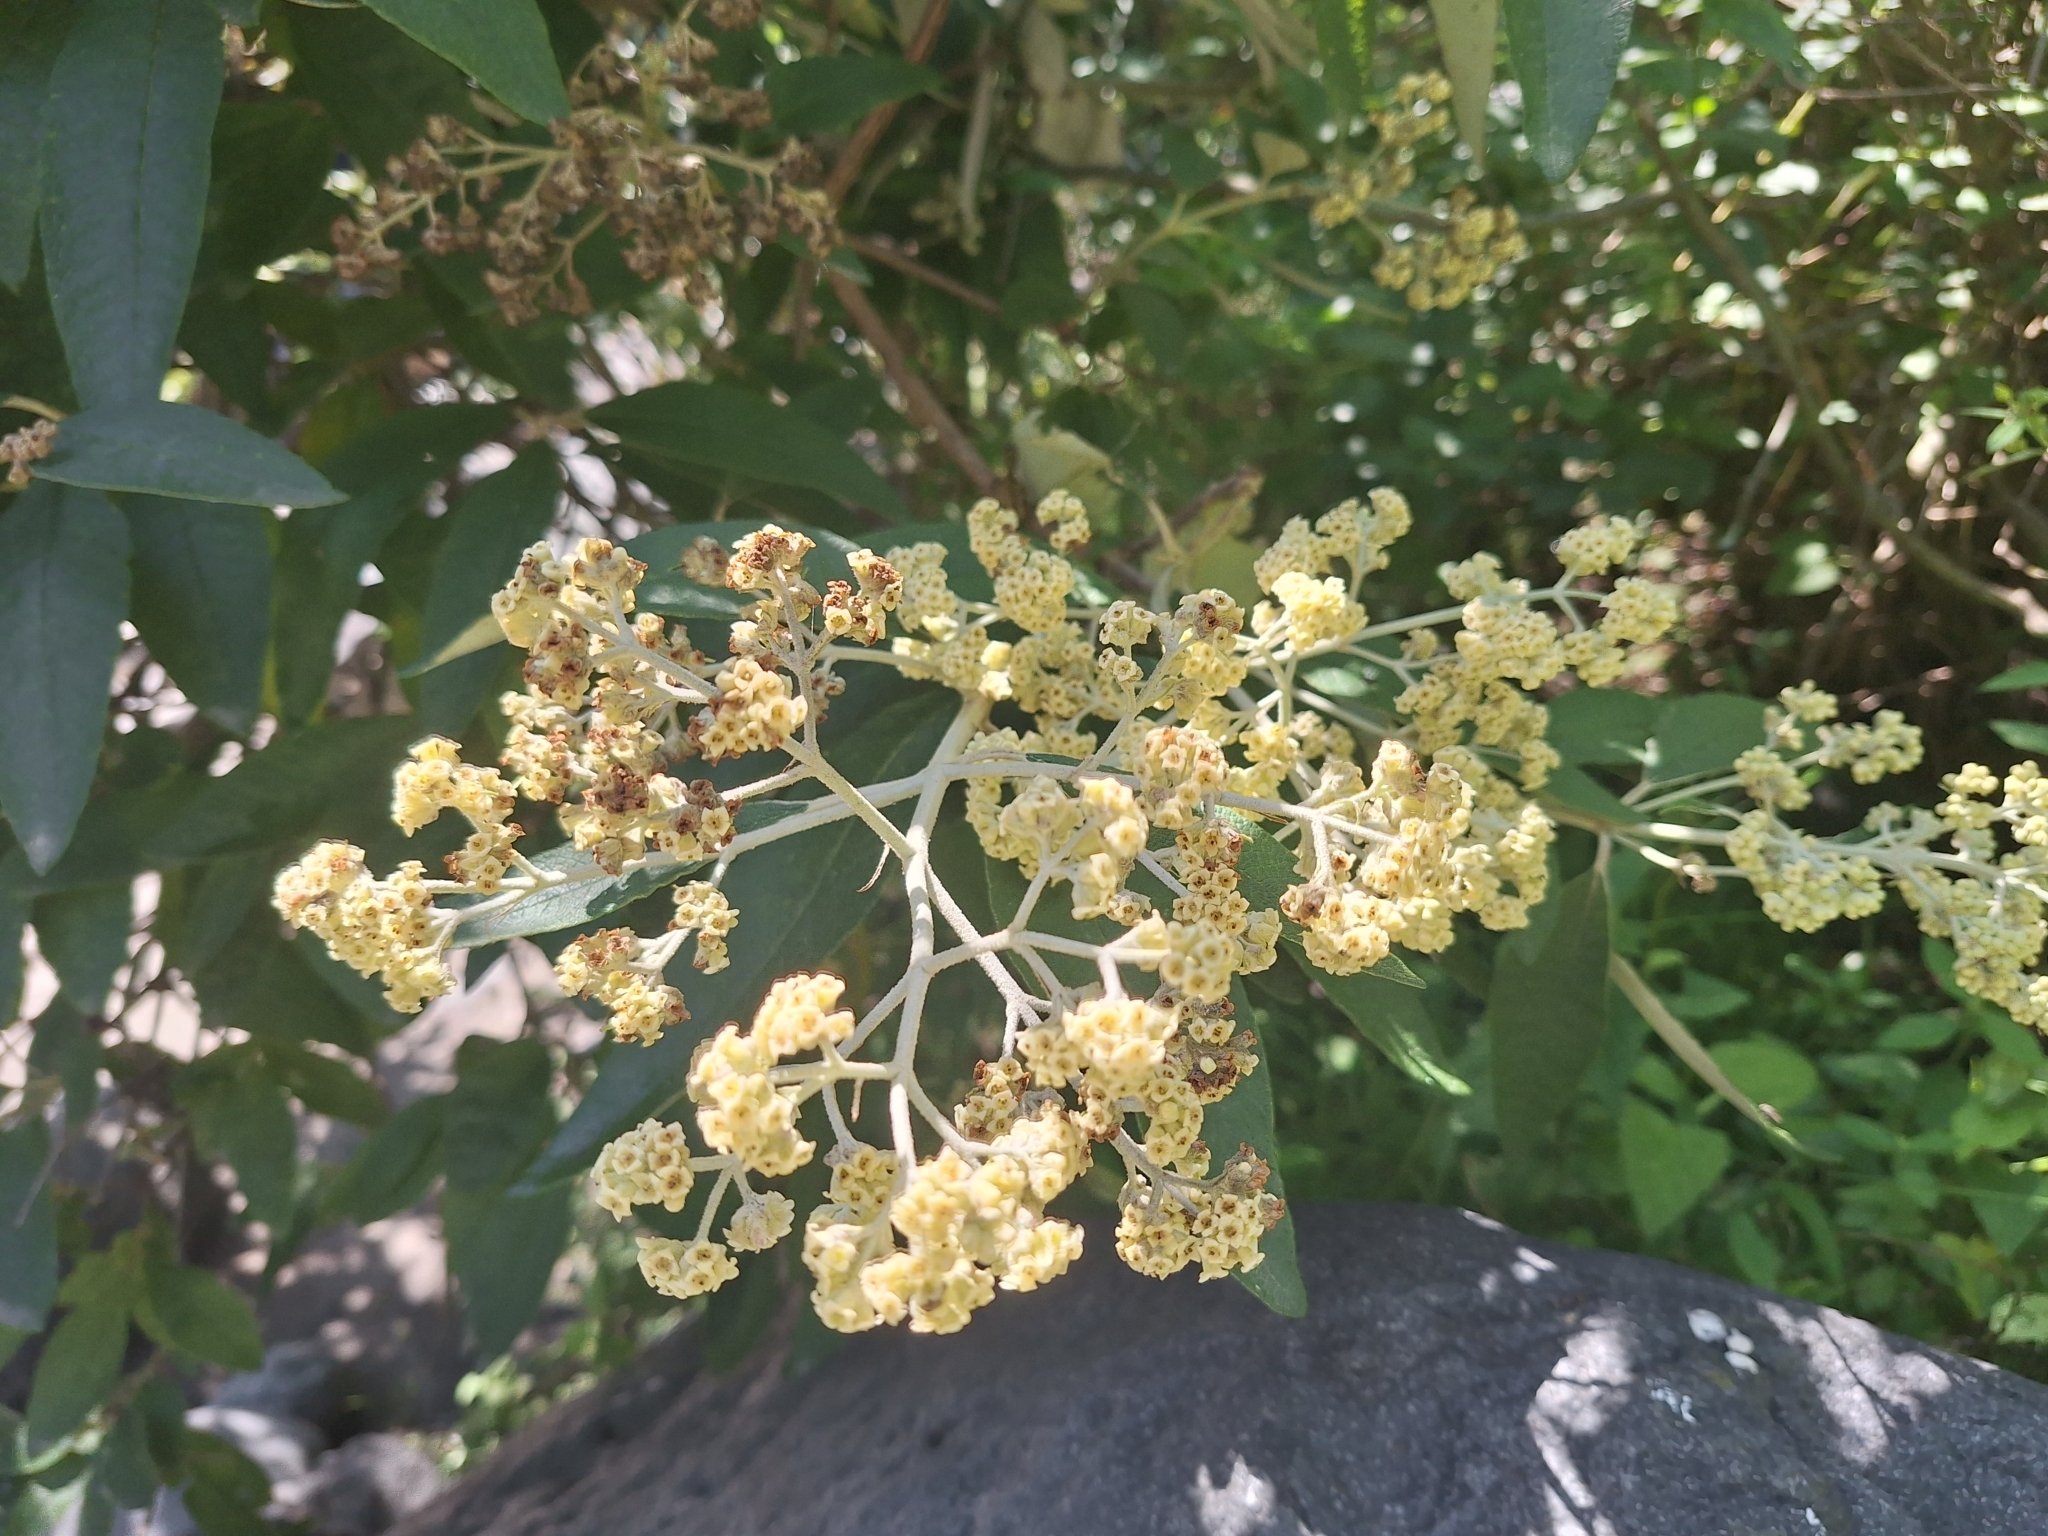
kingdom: Plantae
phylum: Tracheophyta
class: Magnoliopsida
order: Lamiales
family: Scrophulariaceae
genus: Buddleja
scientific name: Buddleja bullata
